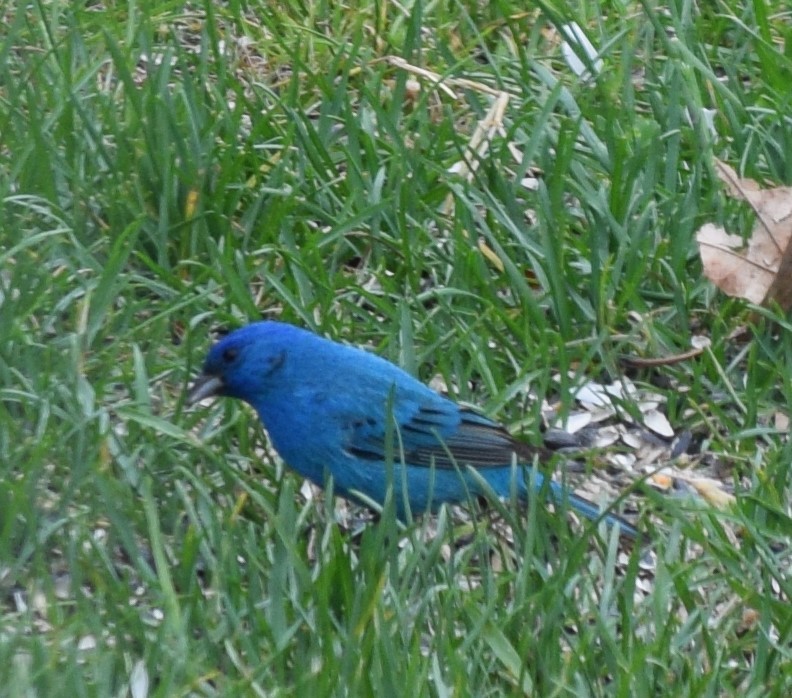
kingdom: Animalia
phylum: Chordata
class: Aves
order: Passeriformes
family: Cardinalidae
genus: Passerina
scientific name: Passerina cyanea
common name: Indigo bunting
